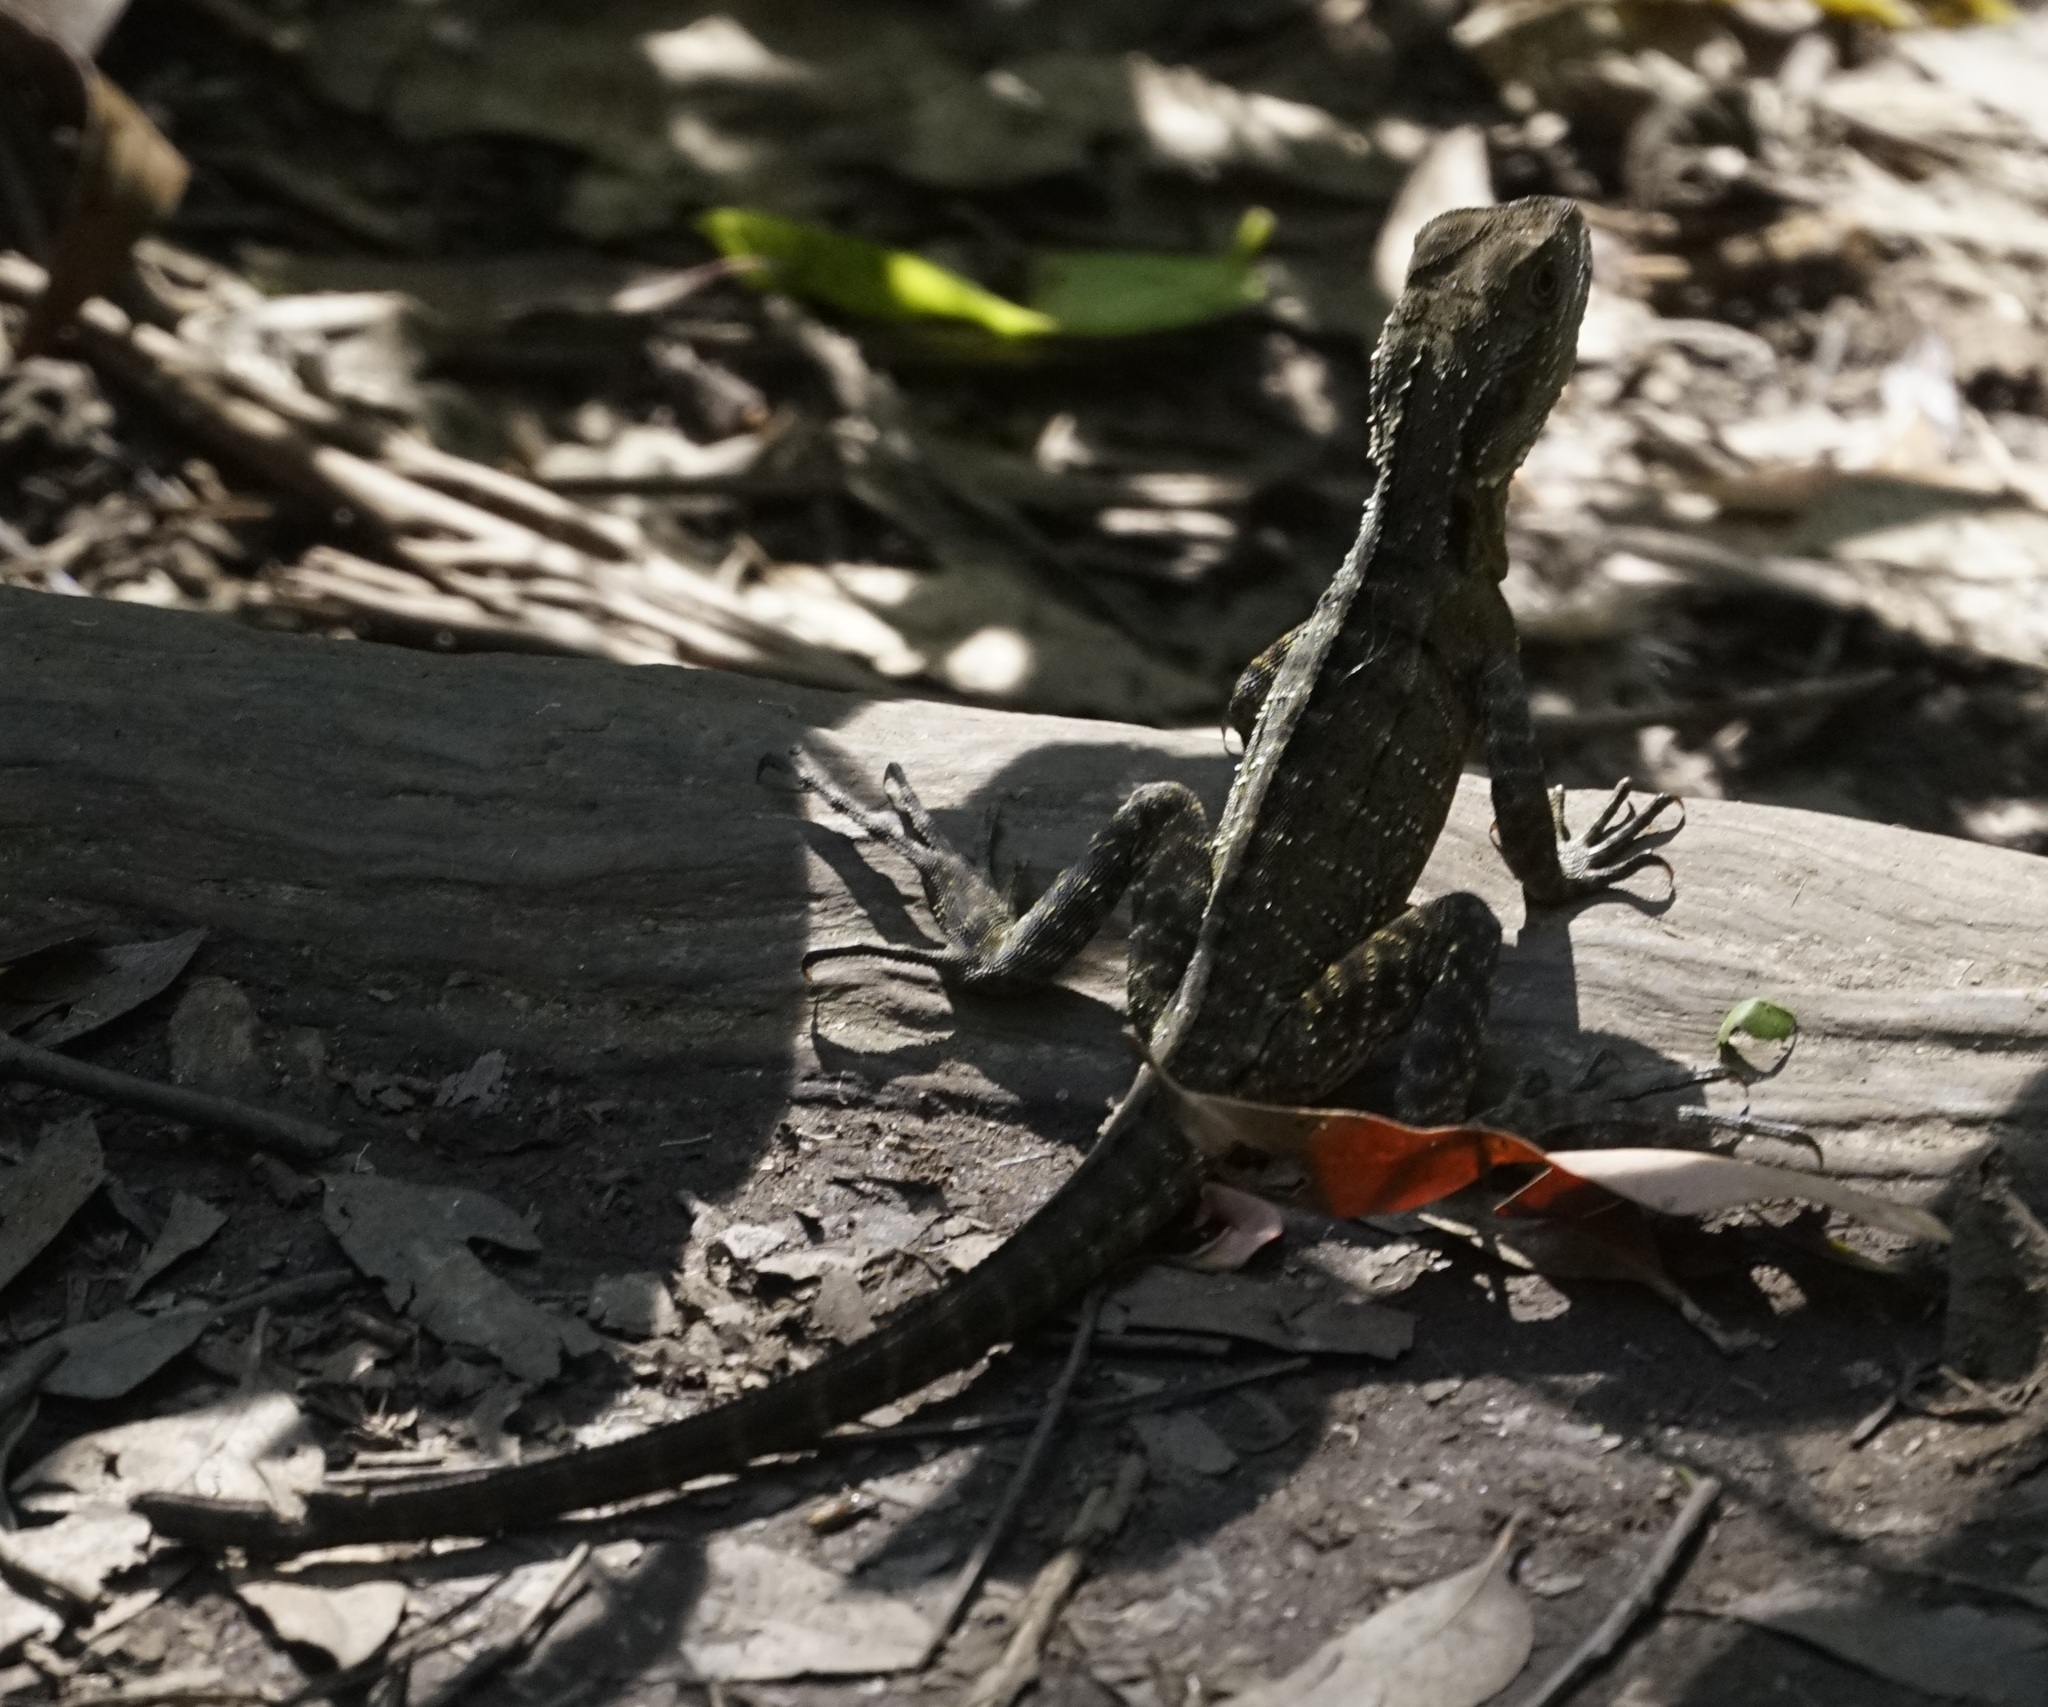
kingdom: Animalia
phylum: Chordata
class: Squamata
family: Agamidae
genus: Intellagama
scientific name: Intellagama lesueurii
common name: Eastern water dragon
